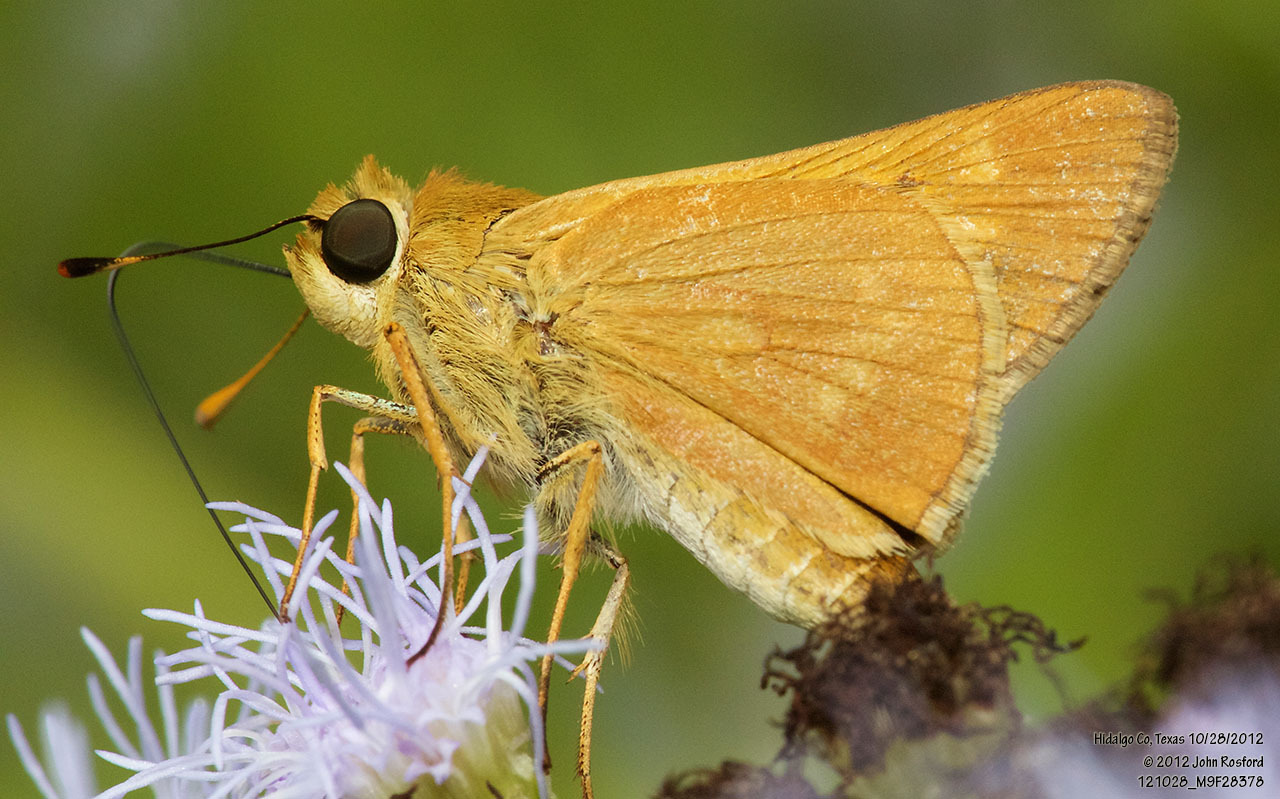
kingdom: Animalia
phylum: Arthropoda
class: Insecta
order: Lepidoptera
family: Hesperiidae
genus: Mellana
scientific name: Mellana eulogius
